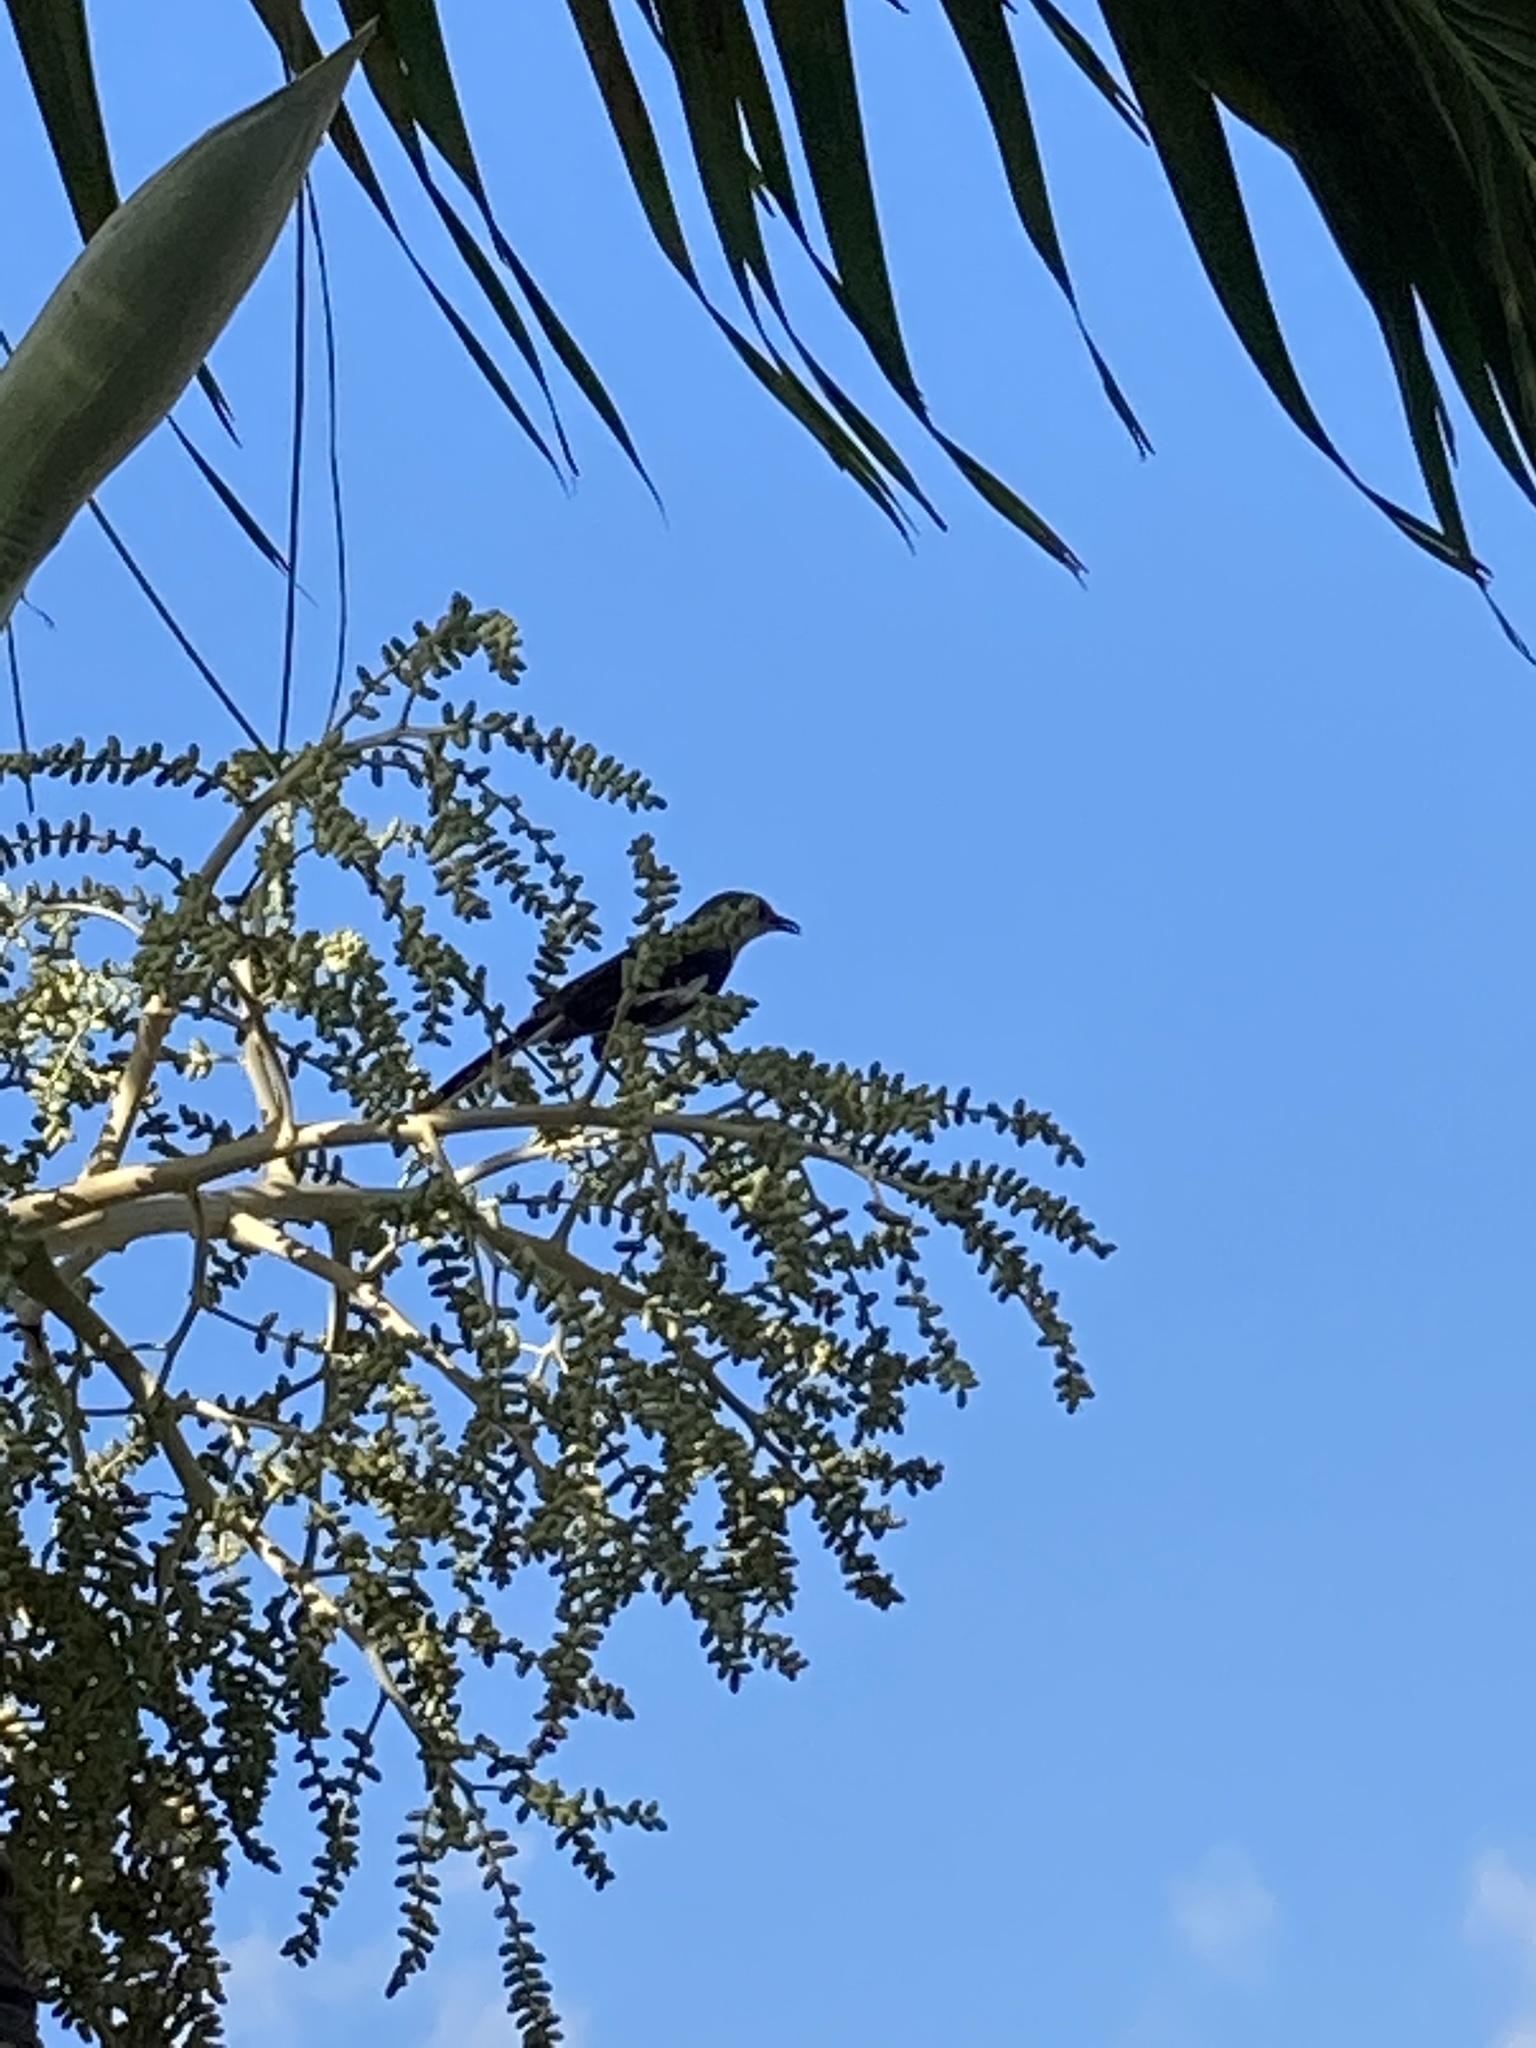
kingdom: Animalia
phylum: Chordata
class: Aves
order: Passeriformes
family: Mimidae
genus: Mimus
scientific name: Mimus polyglottos
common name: Northern mockingbird
